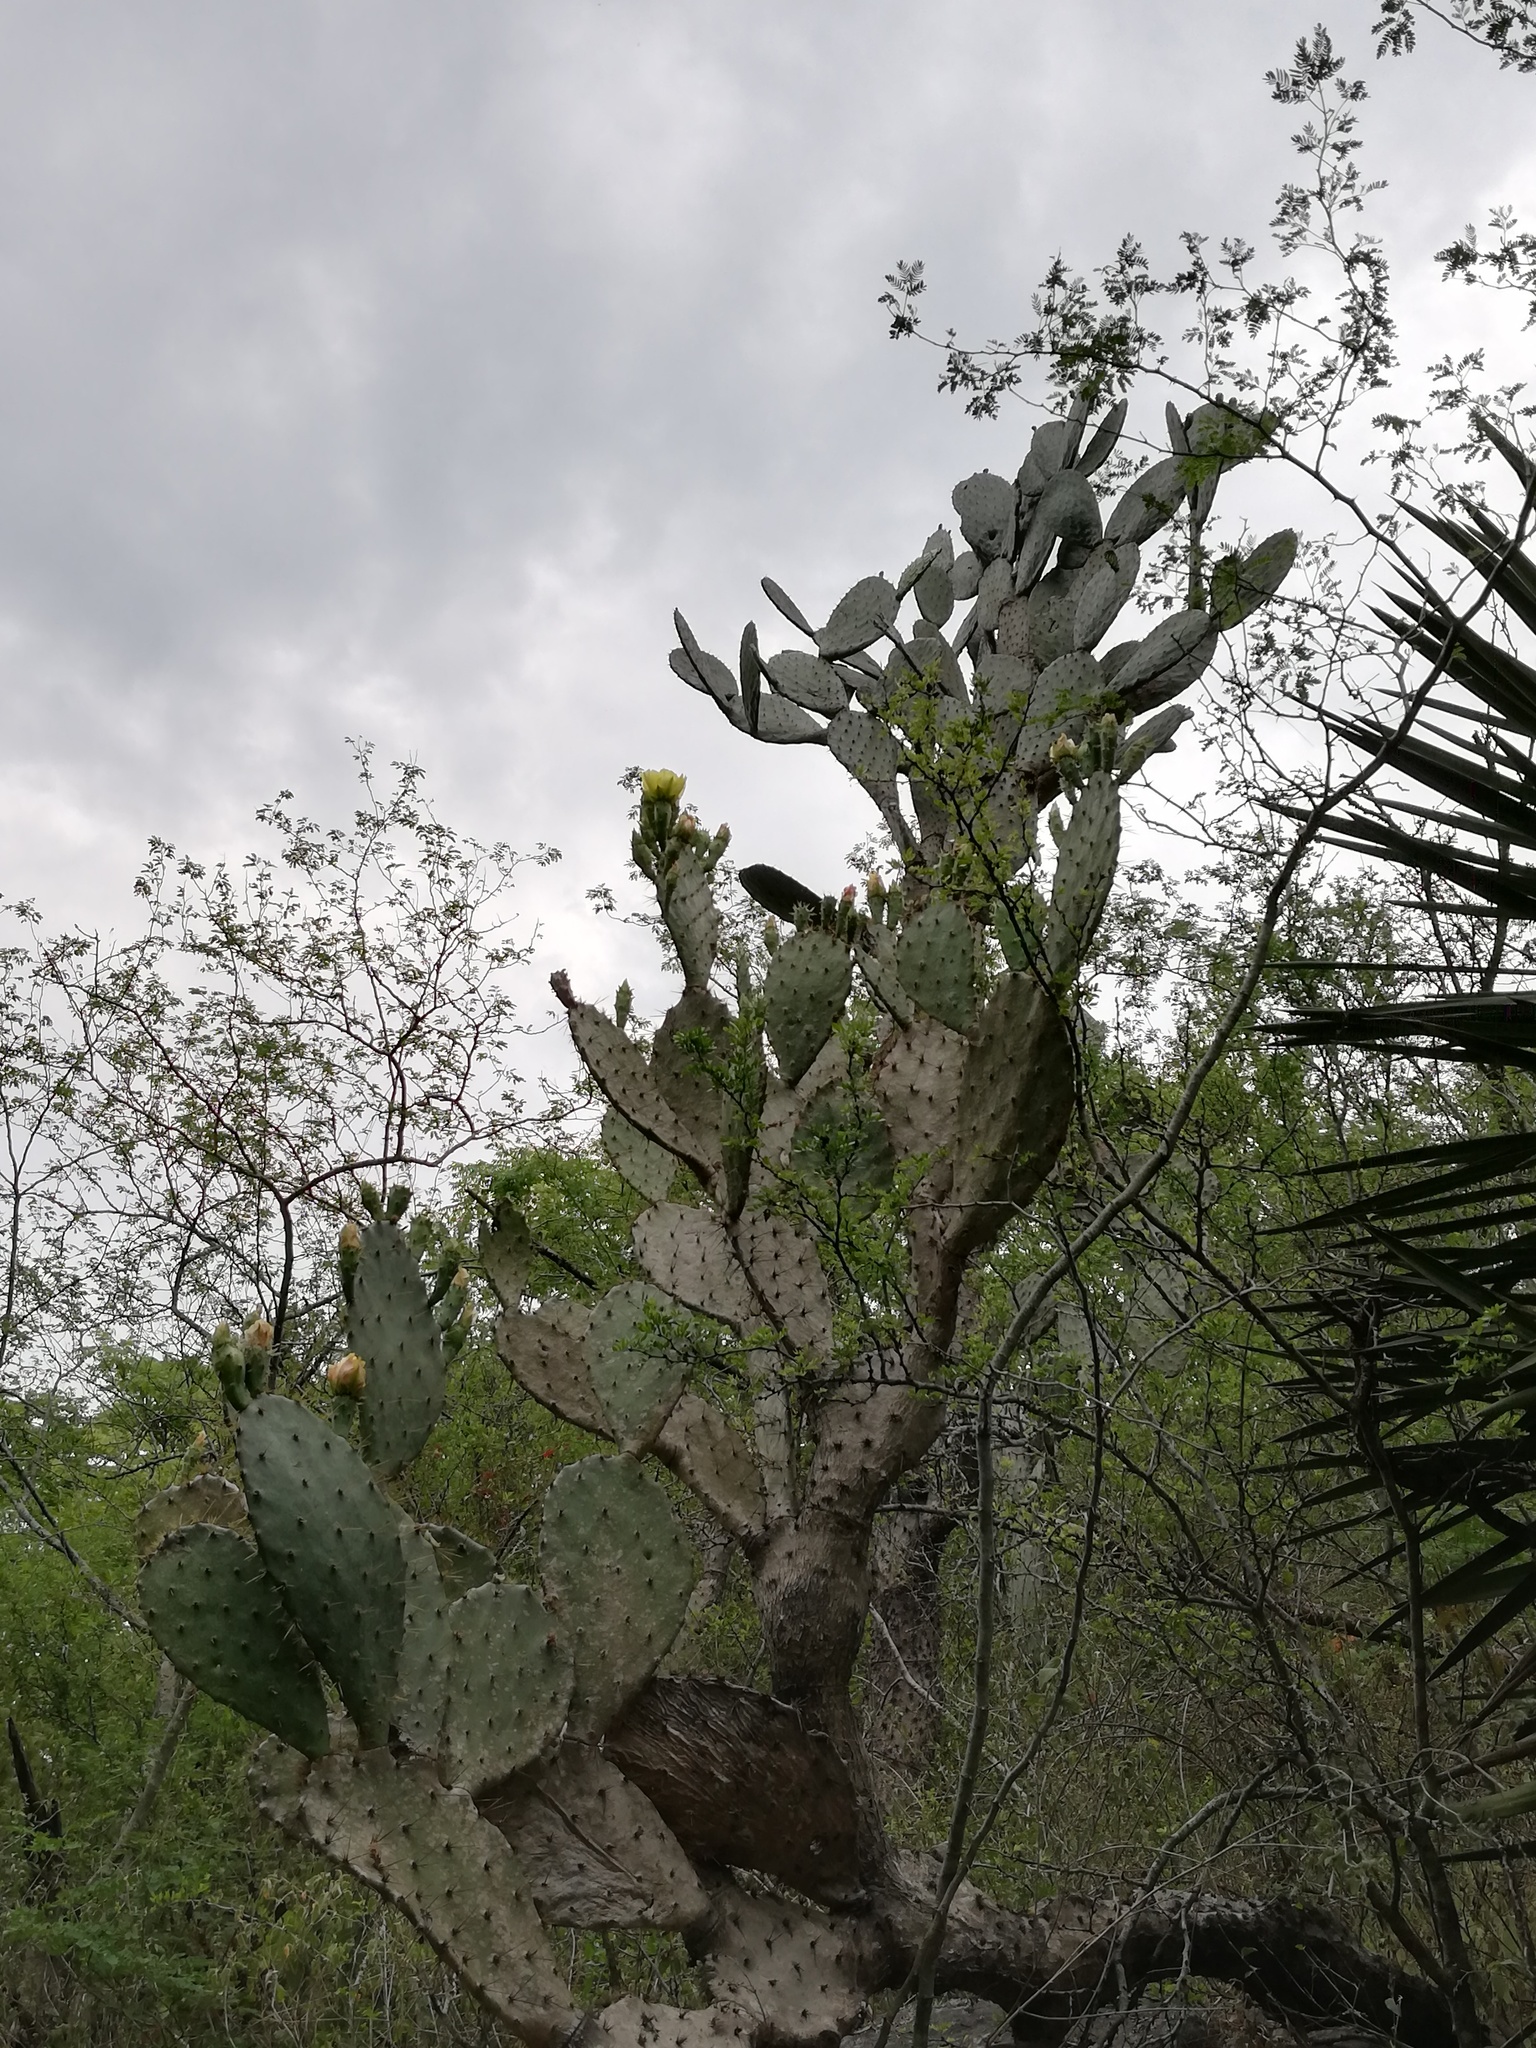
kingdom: Plantae
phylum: Tracheophyta
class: Magnoliopsida
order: Caryophyllales
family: Cactaceae
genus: Opuntia
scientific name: Opuntia engelmannii
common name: Cactus-apple
